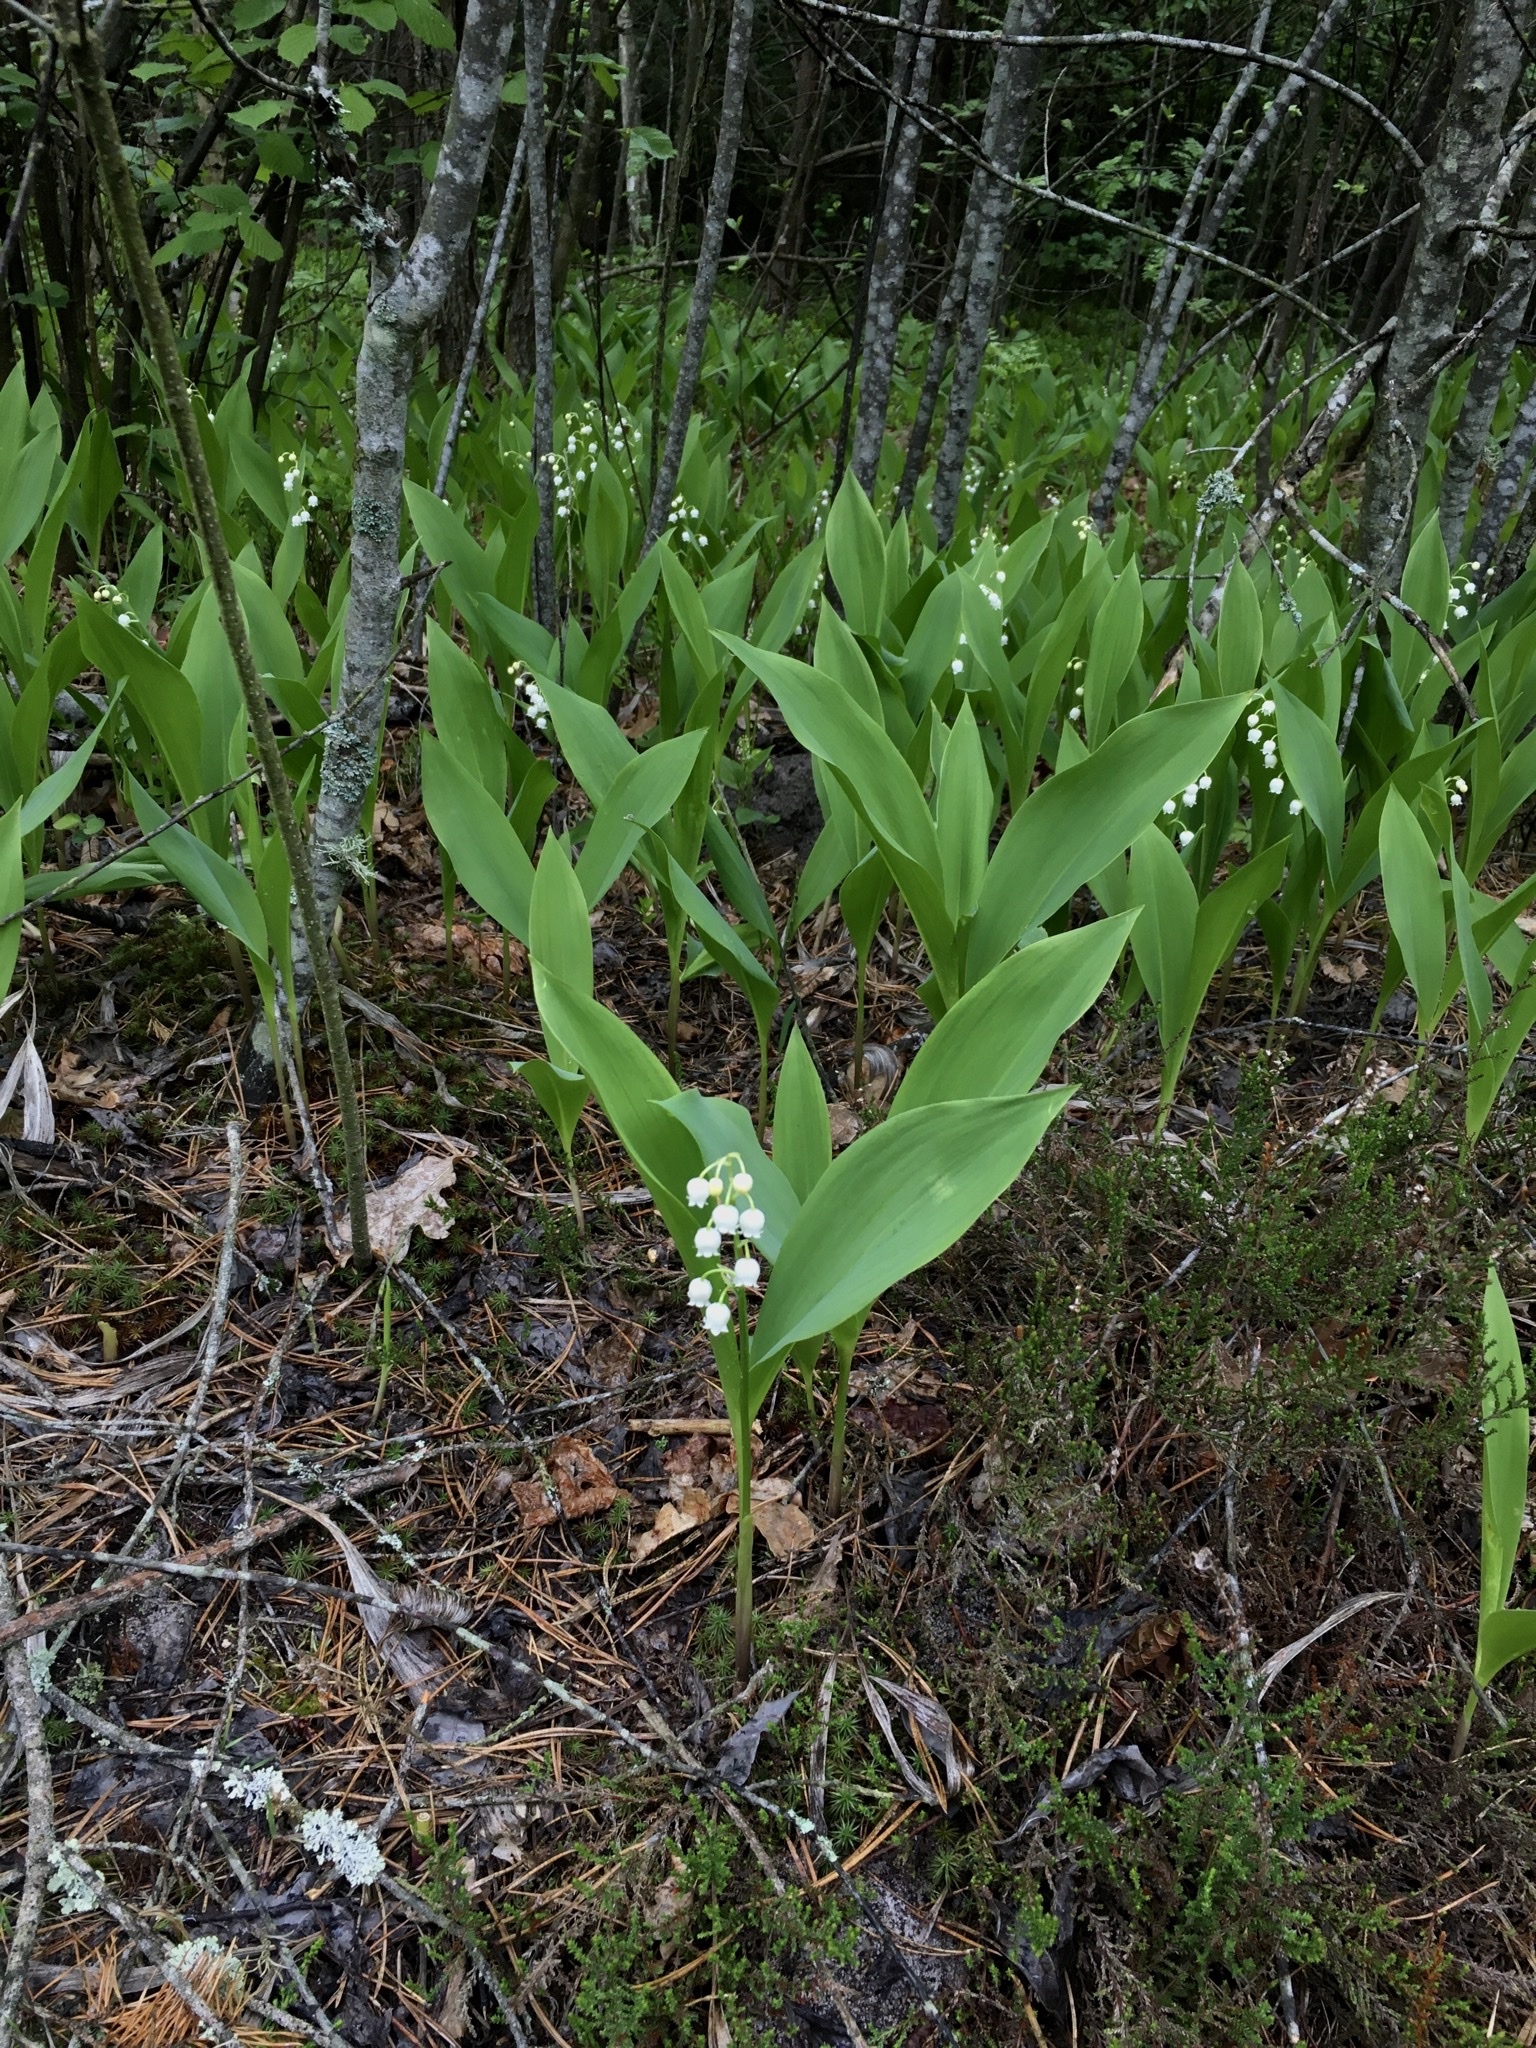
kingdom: Plantae
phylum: Tracheophyta
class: Liliopsida
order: Asparagales
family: Asparagaceae
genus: Convallaria
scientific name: Convallaria majalis
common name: Lily-of-the-valley
